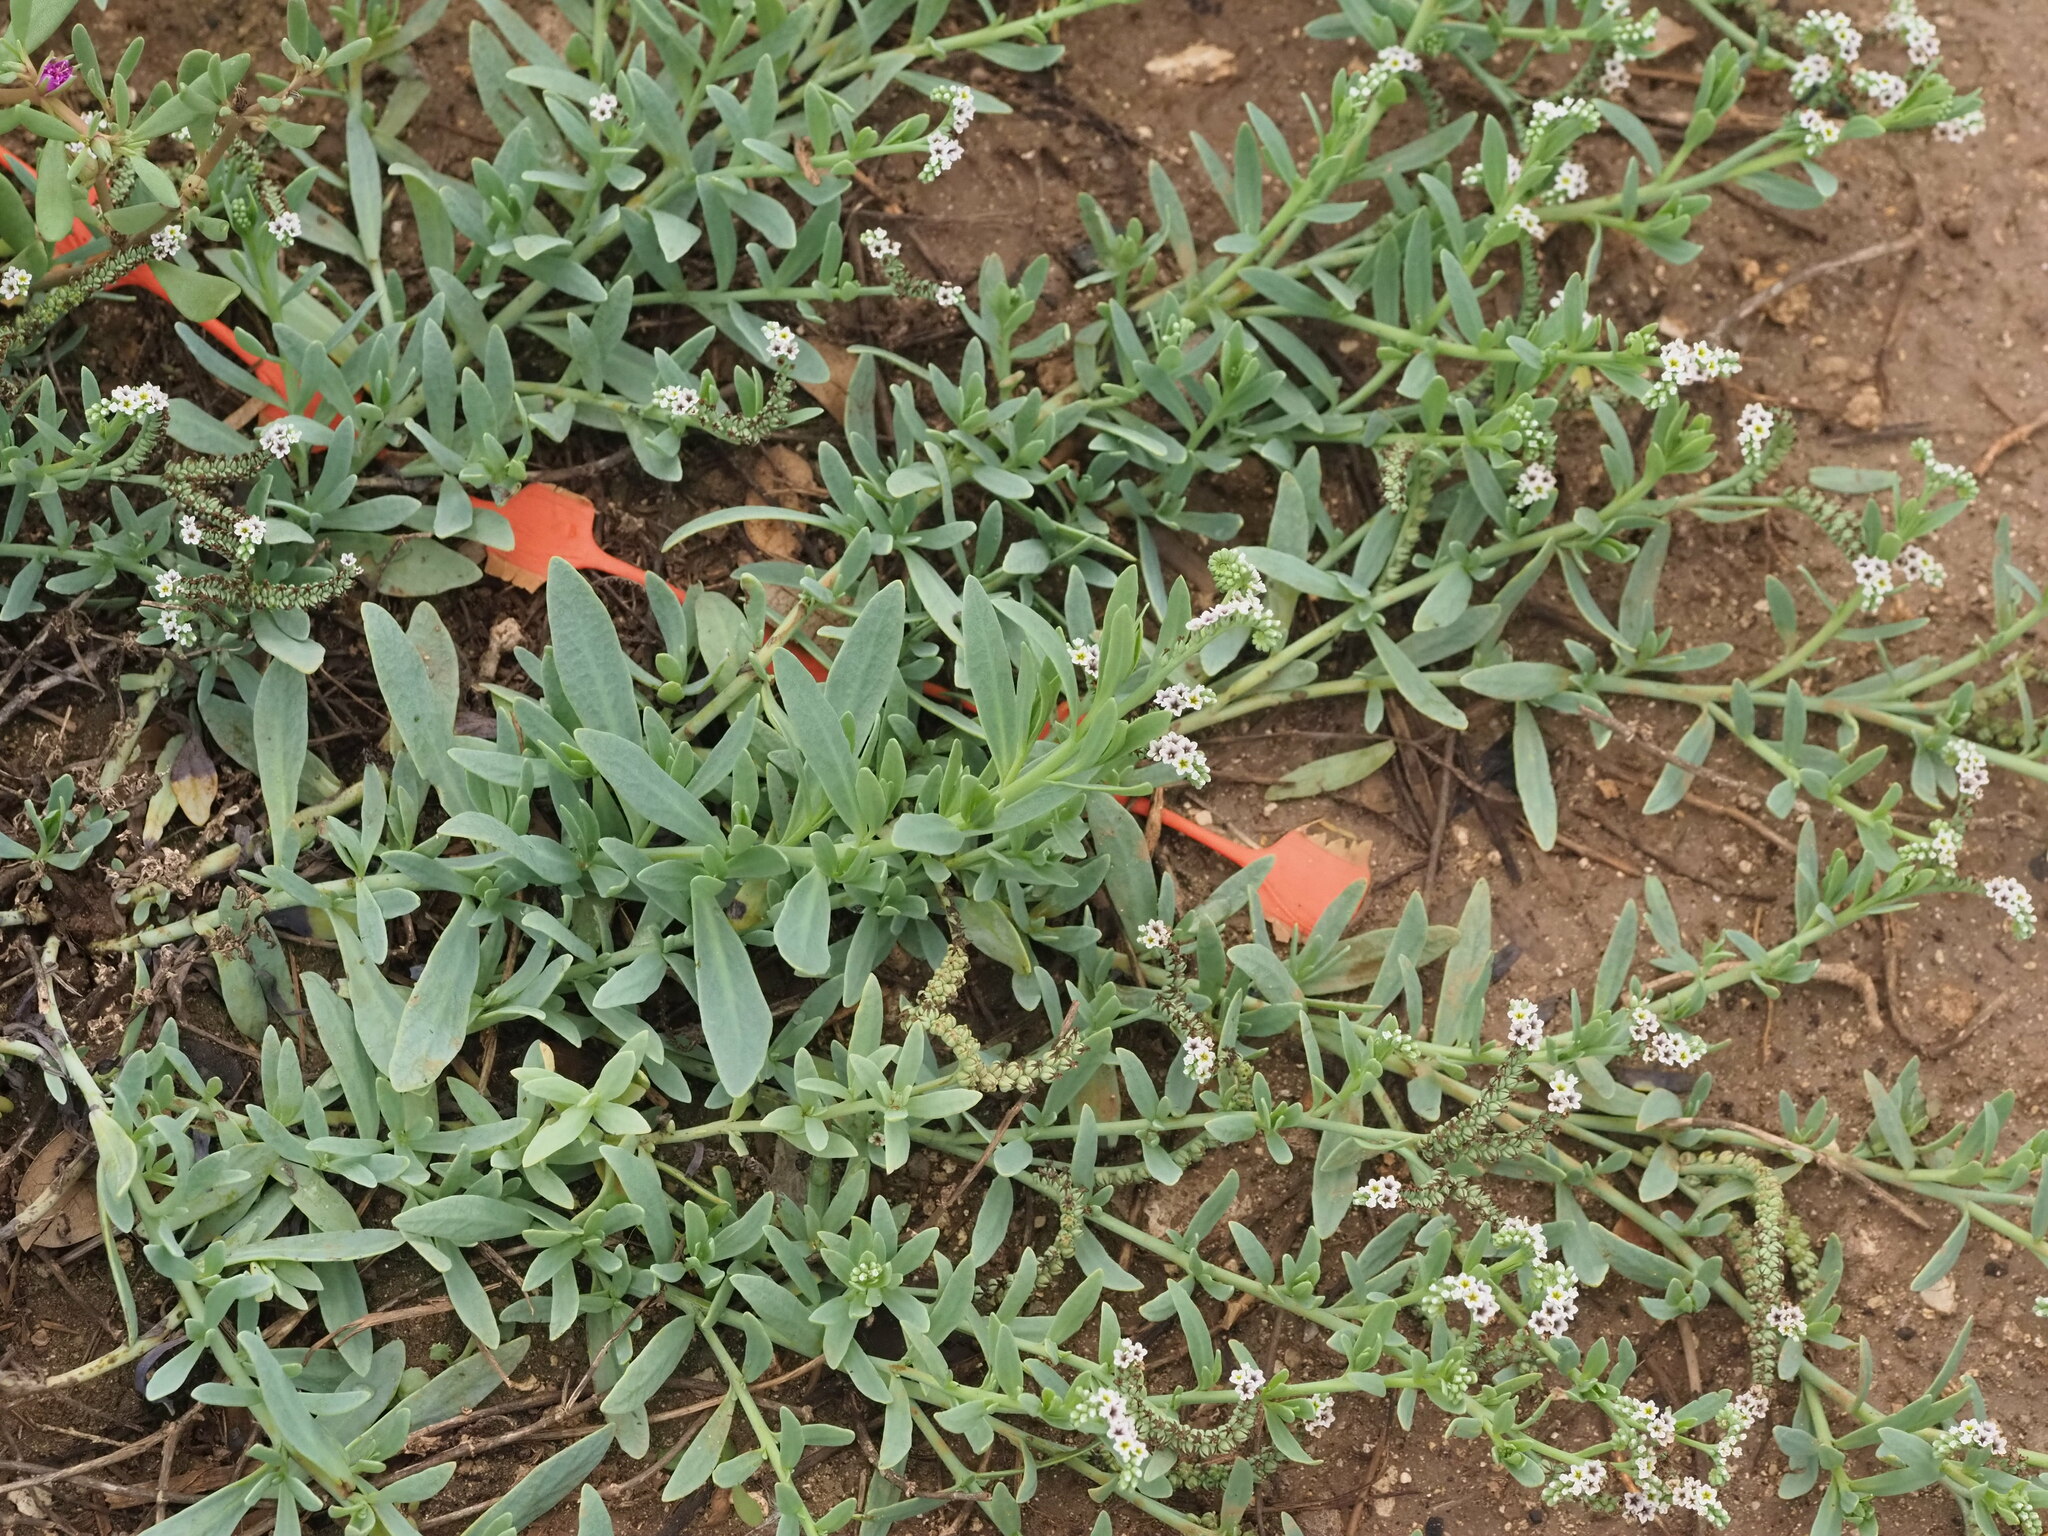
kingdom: Plantae
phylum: Tracheophyta
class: Magnoliopsida
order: Boraginales
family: Heliotropiaceae
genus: Heliotropium
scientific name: Heliotropium curassavicum
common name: Seaside heliotrope
